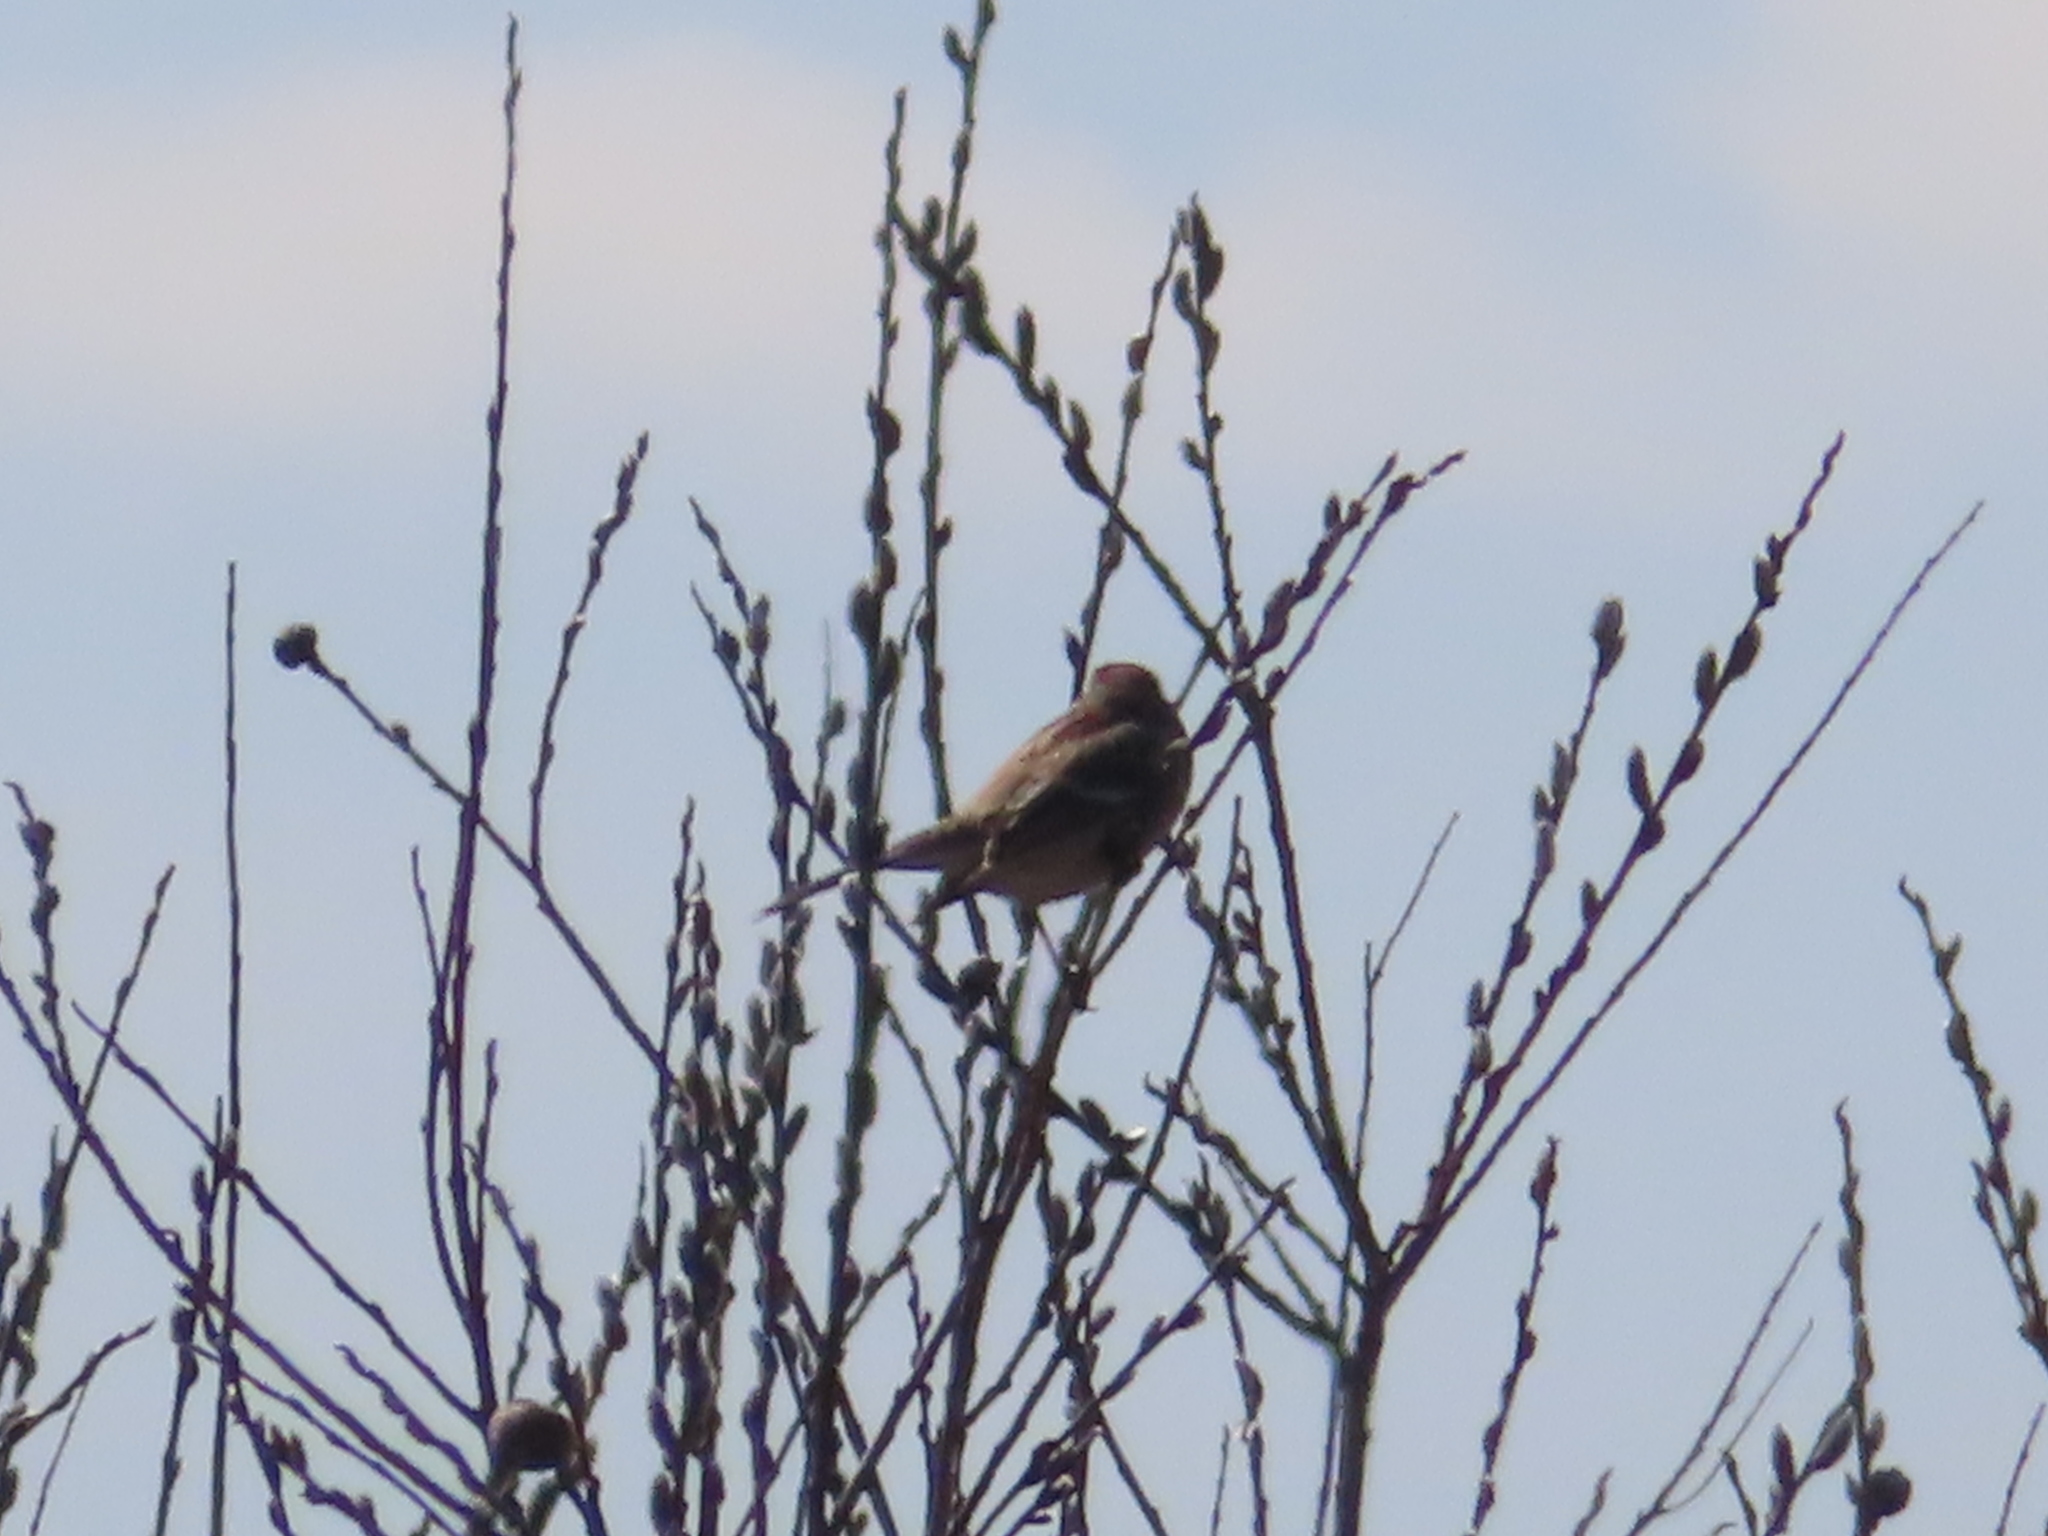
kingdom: Animalia
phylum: Chordata
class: Aves
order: Passeriformes
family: Passerellidae
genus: Spizelloides
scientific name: Spizelloides arborea
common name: American tree sparrow
